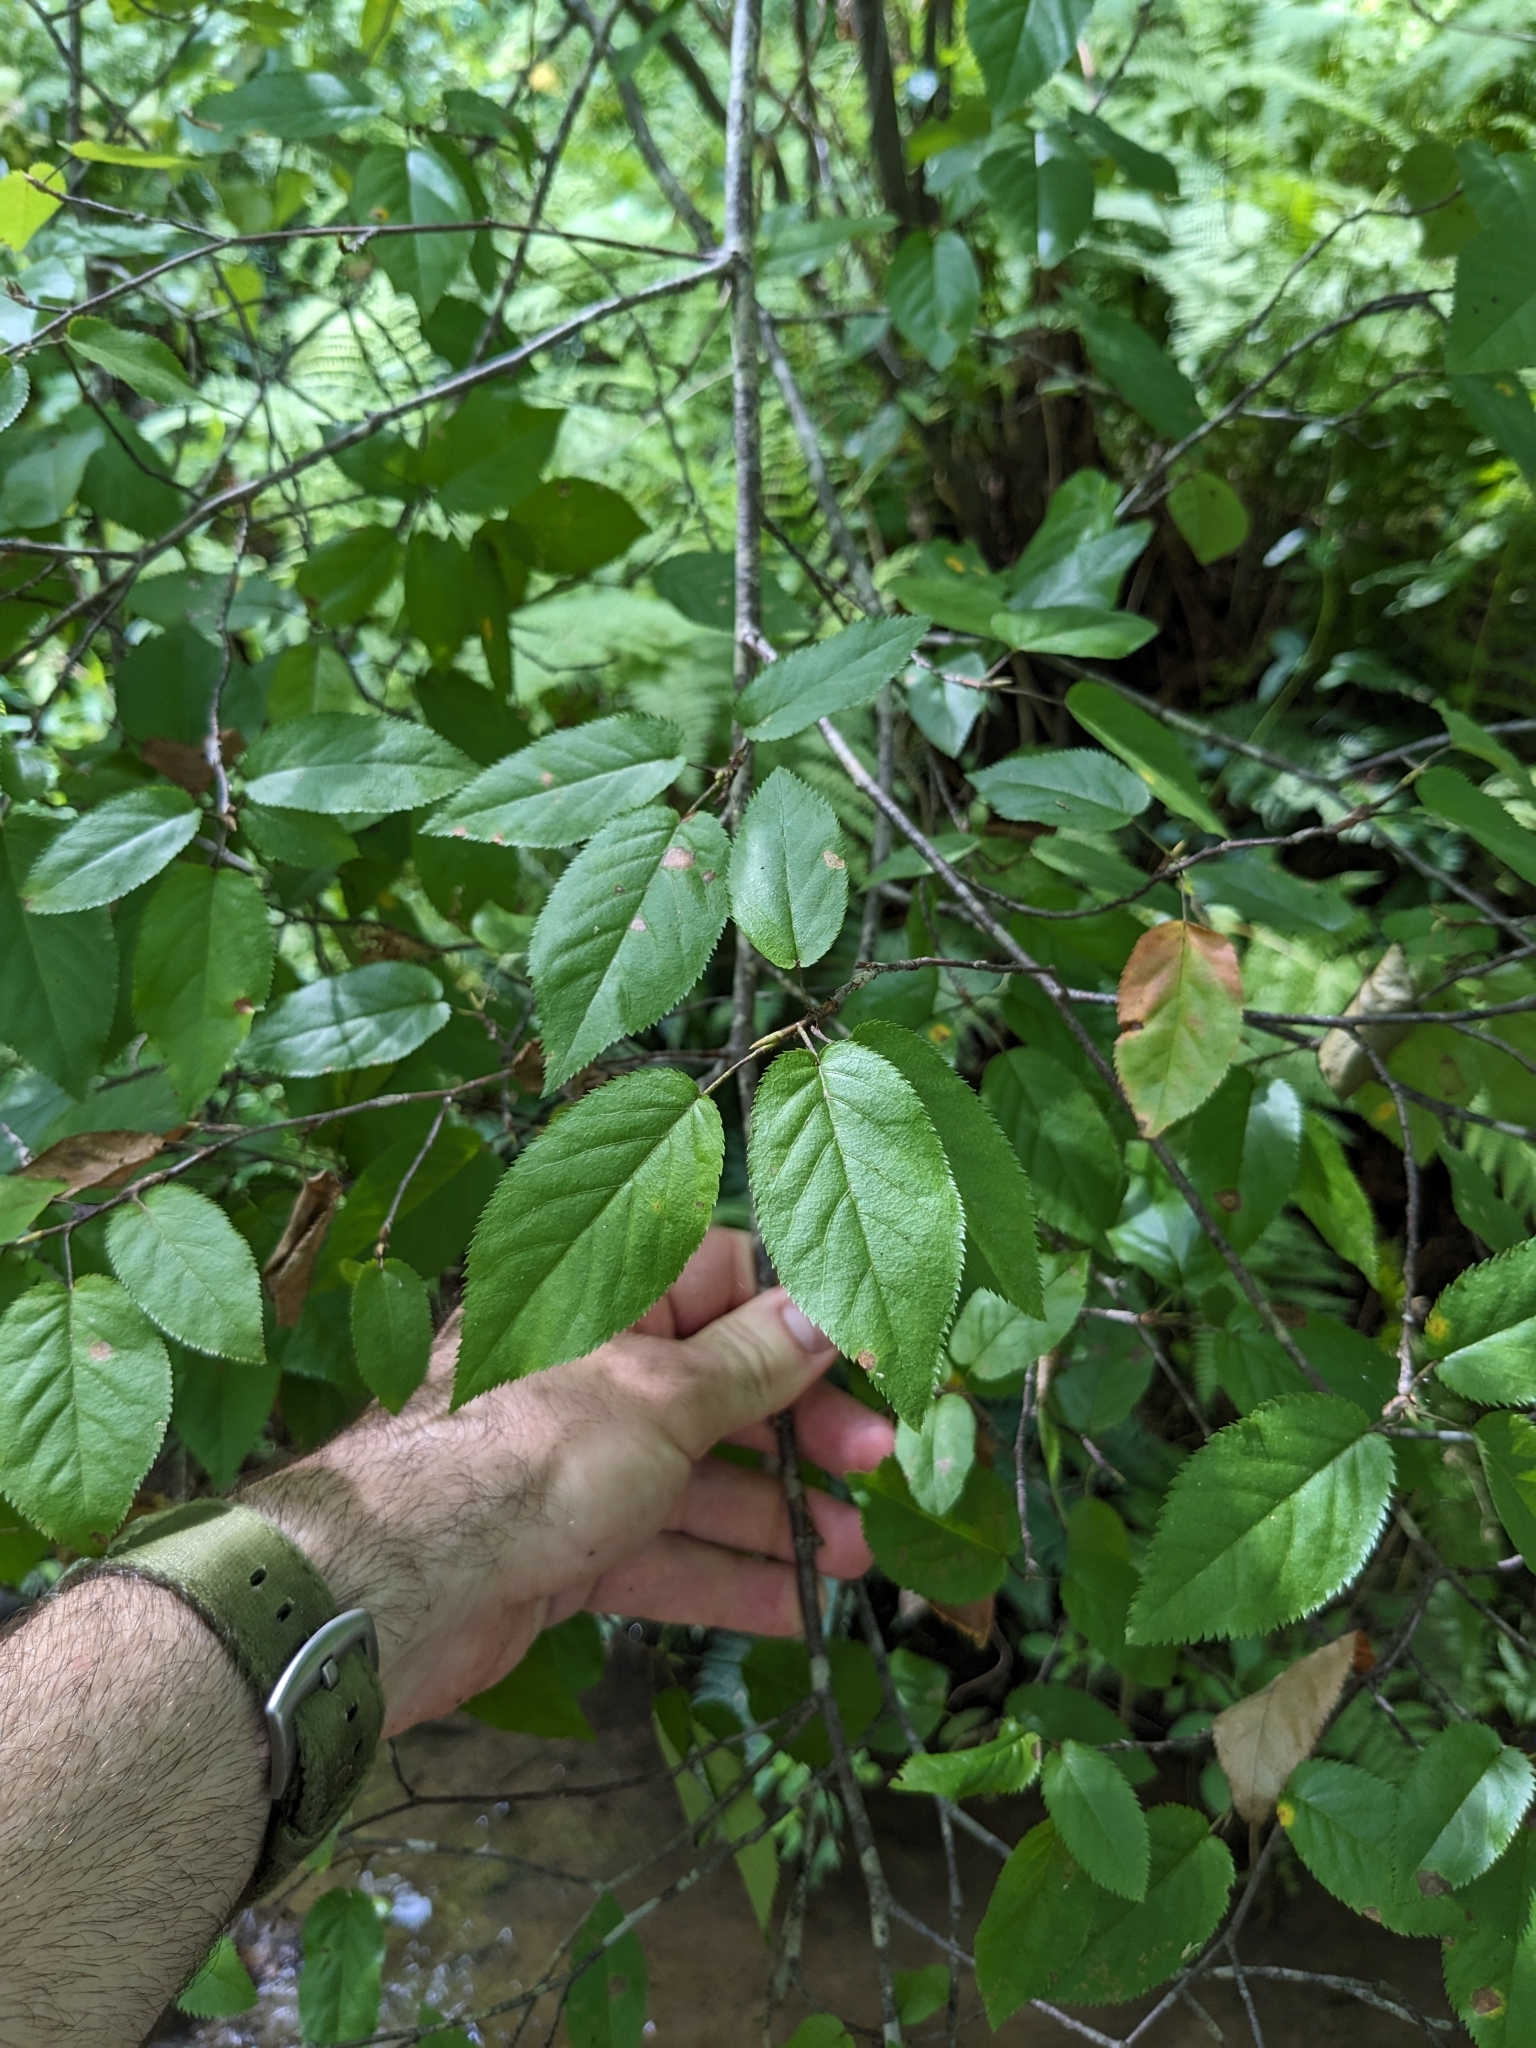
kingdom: Plantae
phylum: Tracheophyta
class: Magnoliopsida
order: Rosales
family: Rosaceae
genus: Amelanchier
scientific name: Amelanchier arborea
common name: Downy serviceberry
